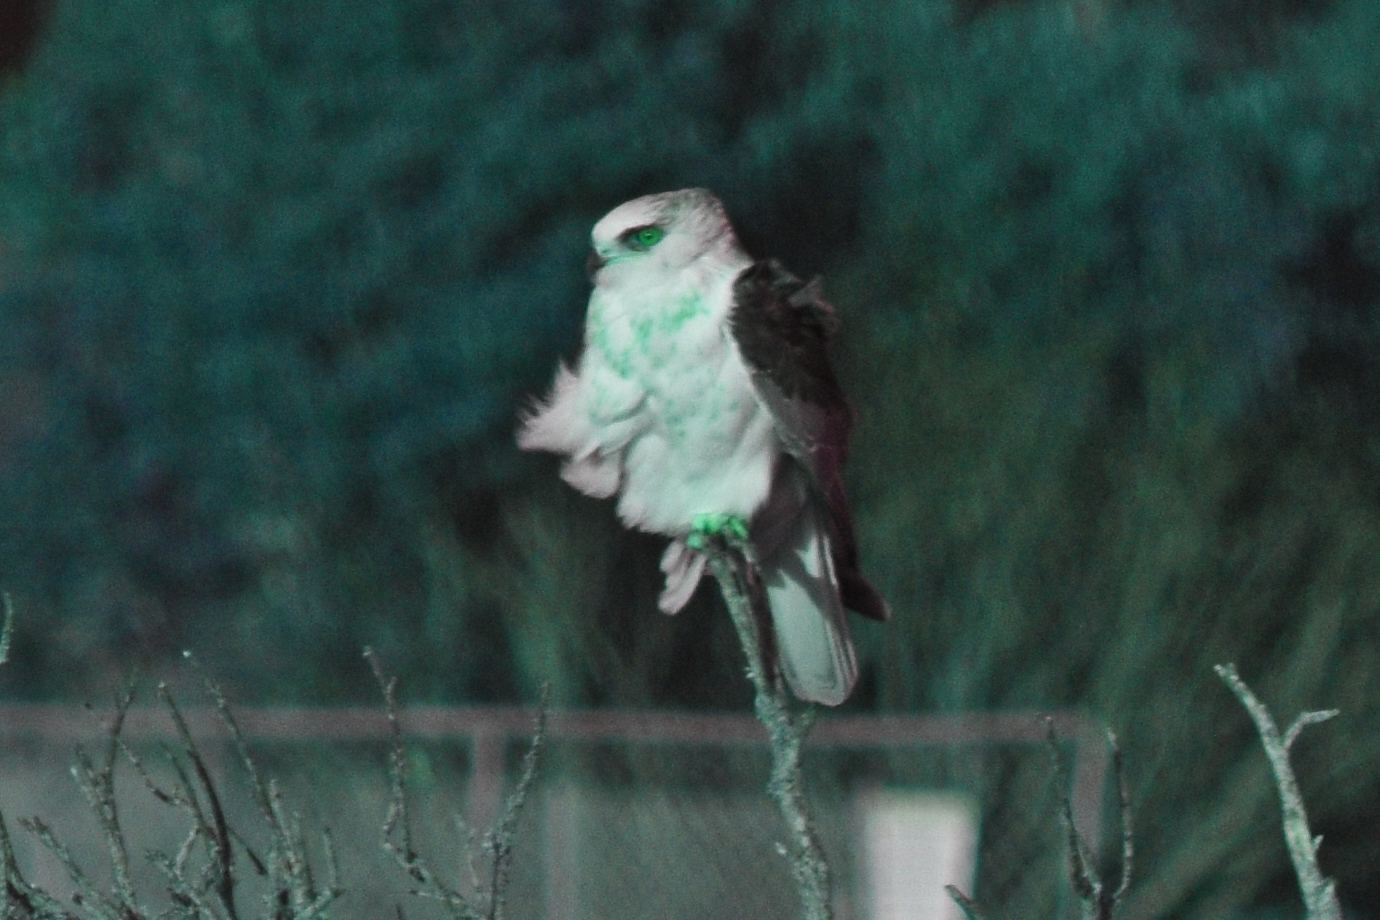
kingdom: Animalia
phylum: Chordata
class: Aves
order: Accipitriformes
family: Accipitridae
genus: Elanus
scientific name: Elanus leucurus
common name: White-tailed kite
